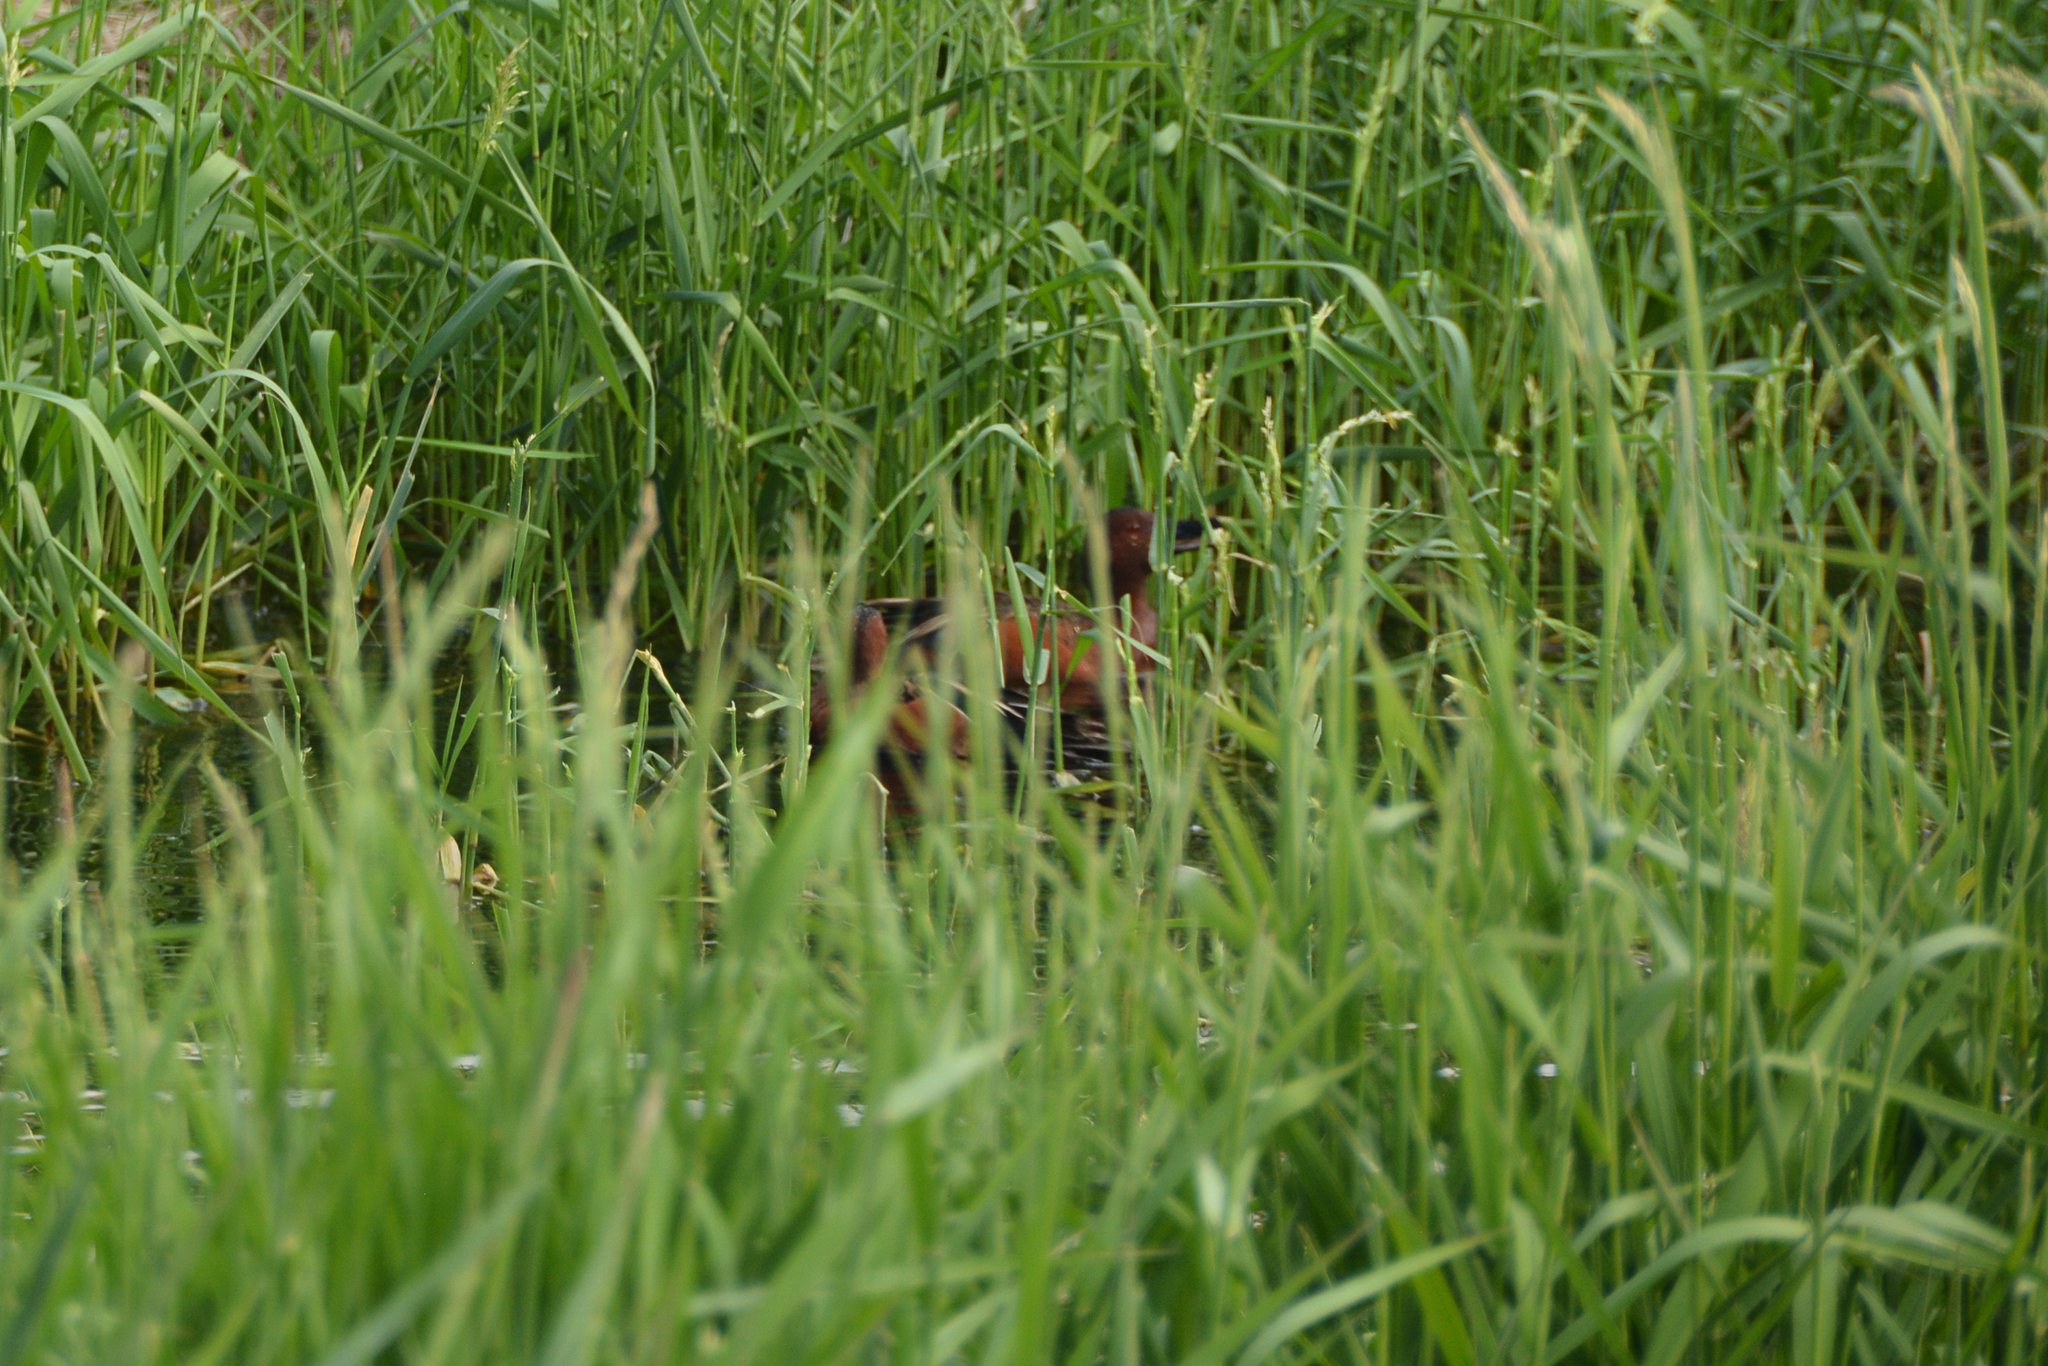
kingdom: Animalia
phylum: Chordata
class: Aves
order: Anseriformes
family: Anatidae
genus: Spatula
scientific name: Spatula cyanoptera
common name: Cinnamon teal
